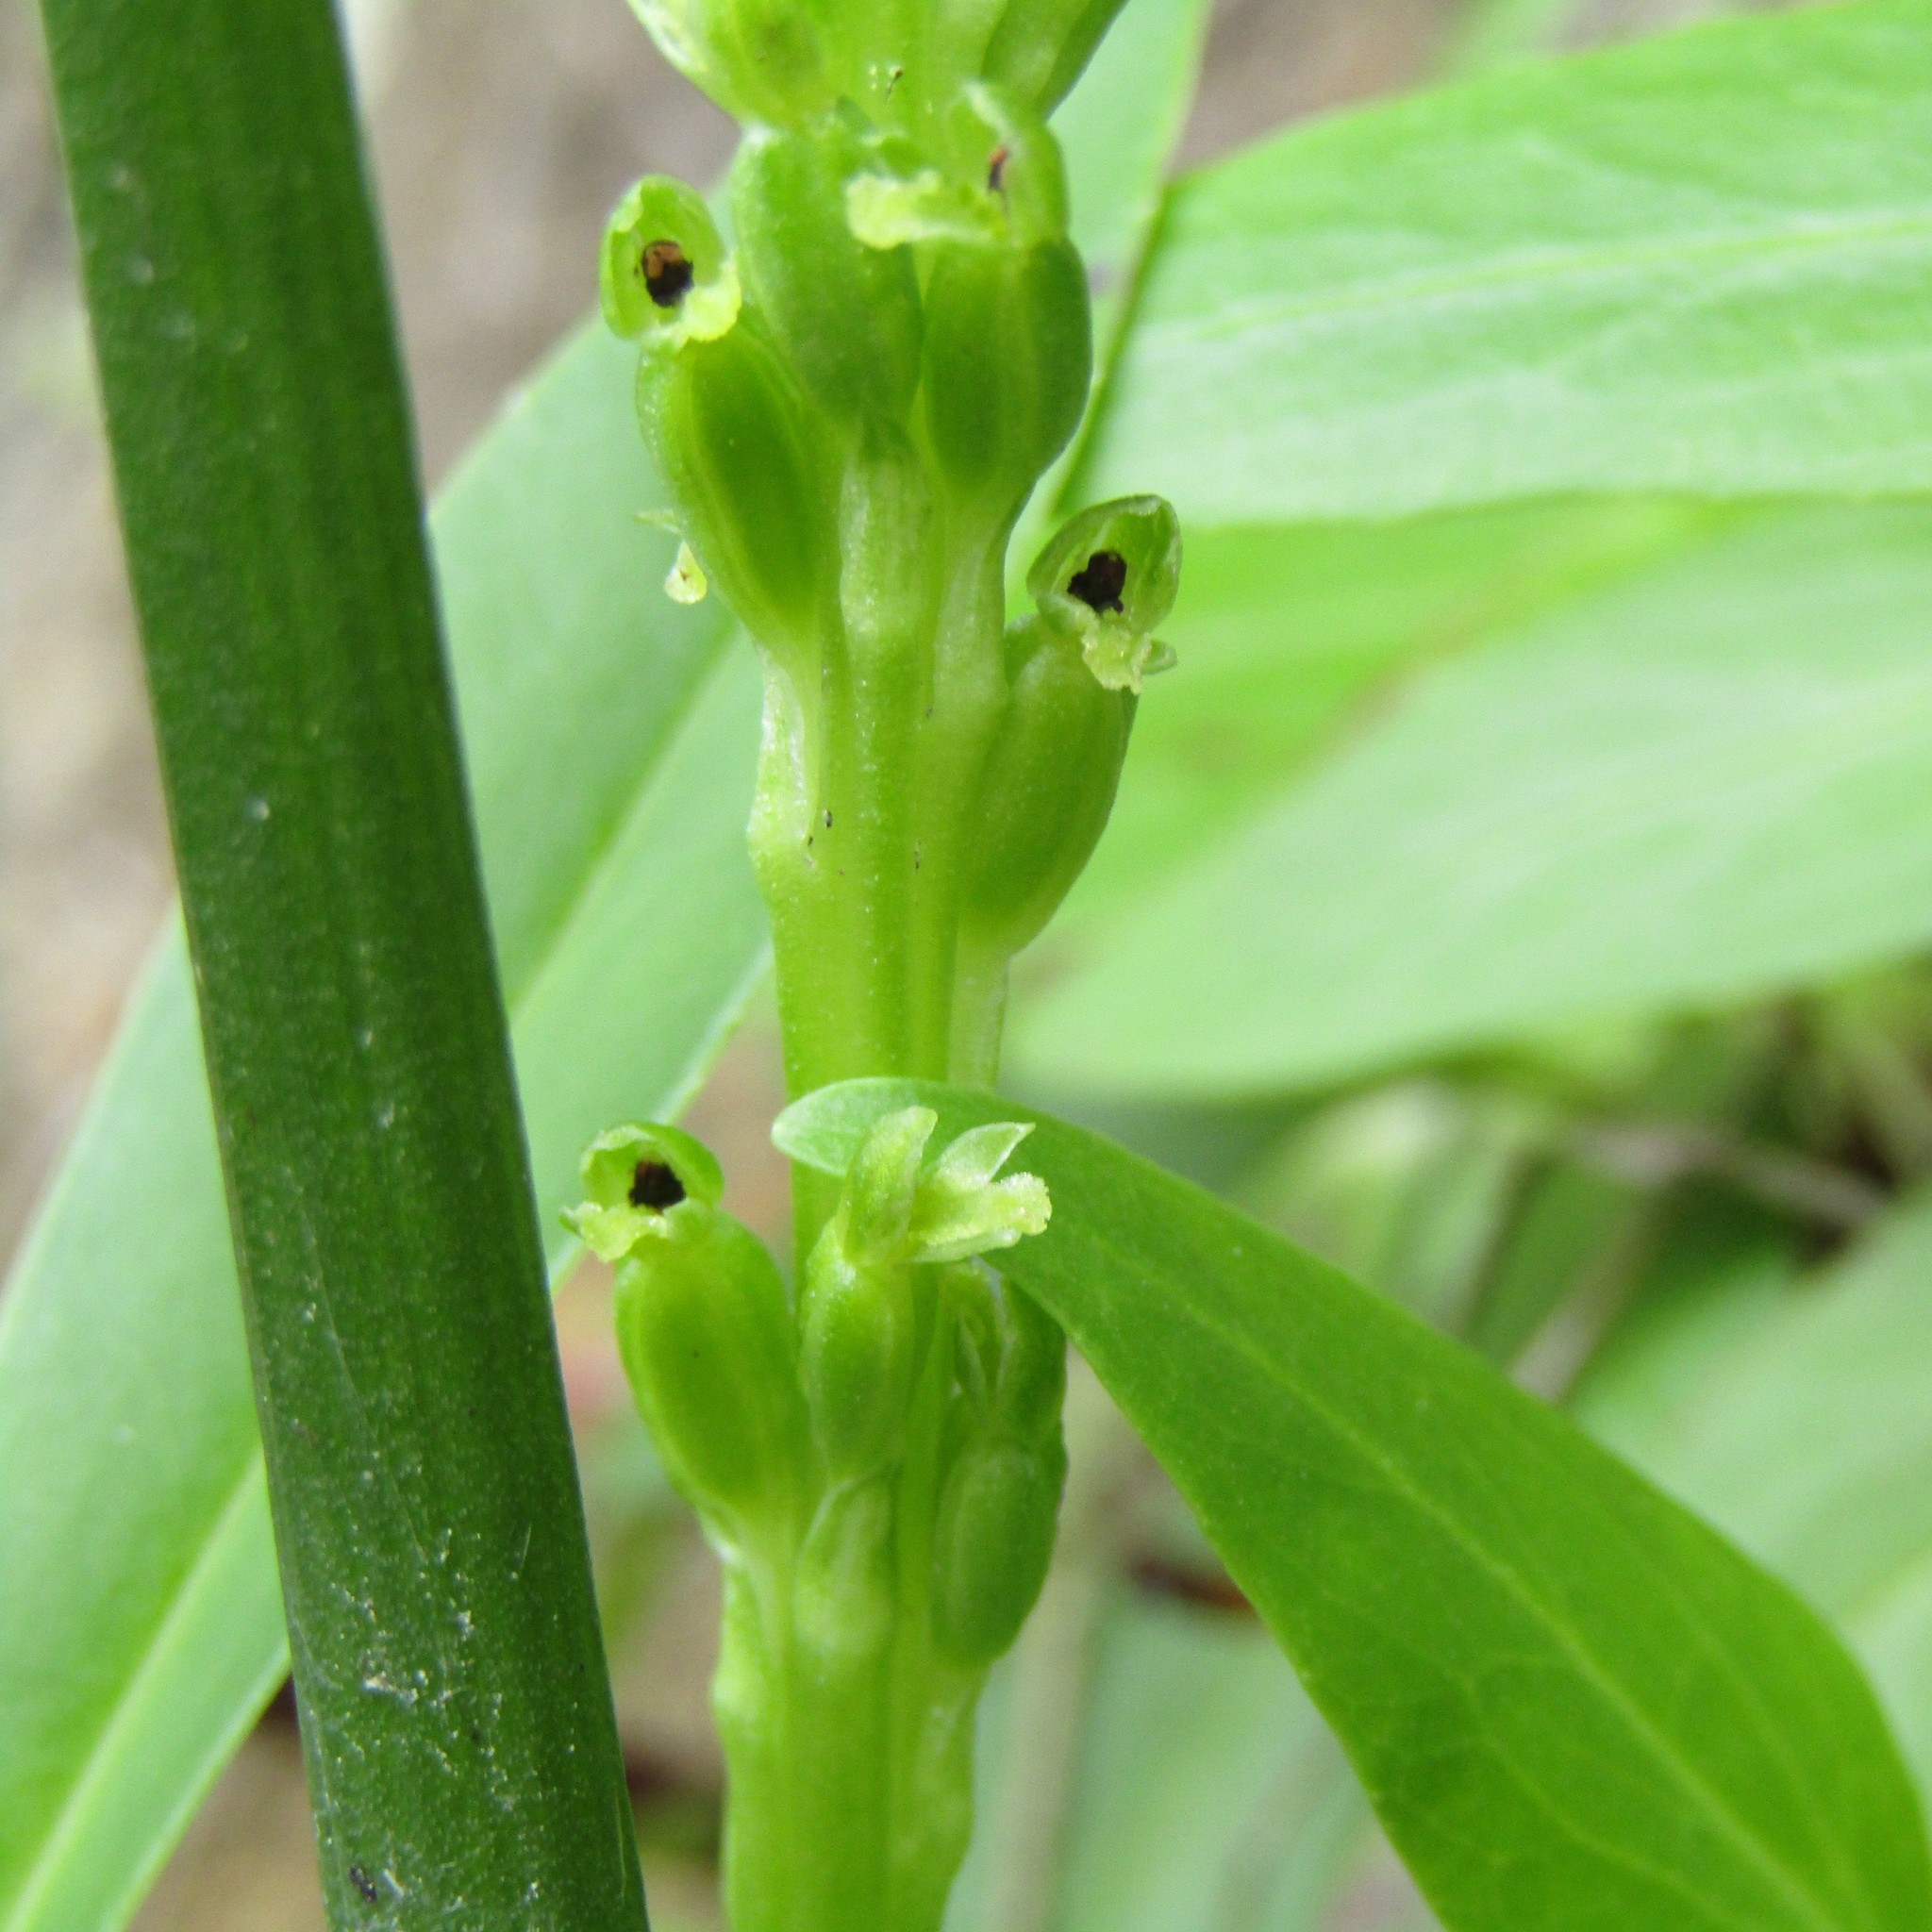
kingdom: Plantae
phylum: Tracheophyta
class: Liliopsida
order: Asparagales
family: Orchidaceae
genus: Microtis
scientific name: Microtis unifolia
